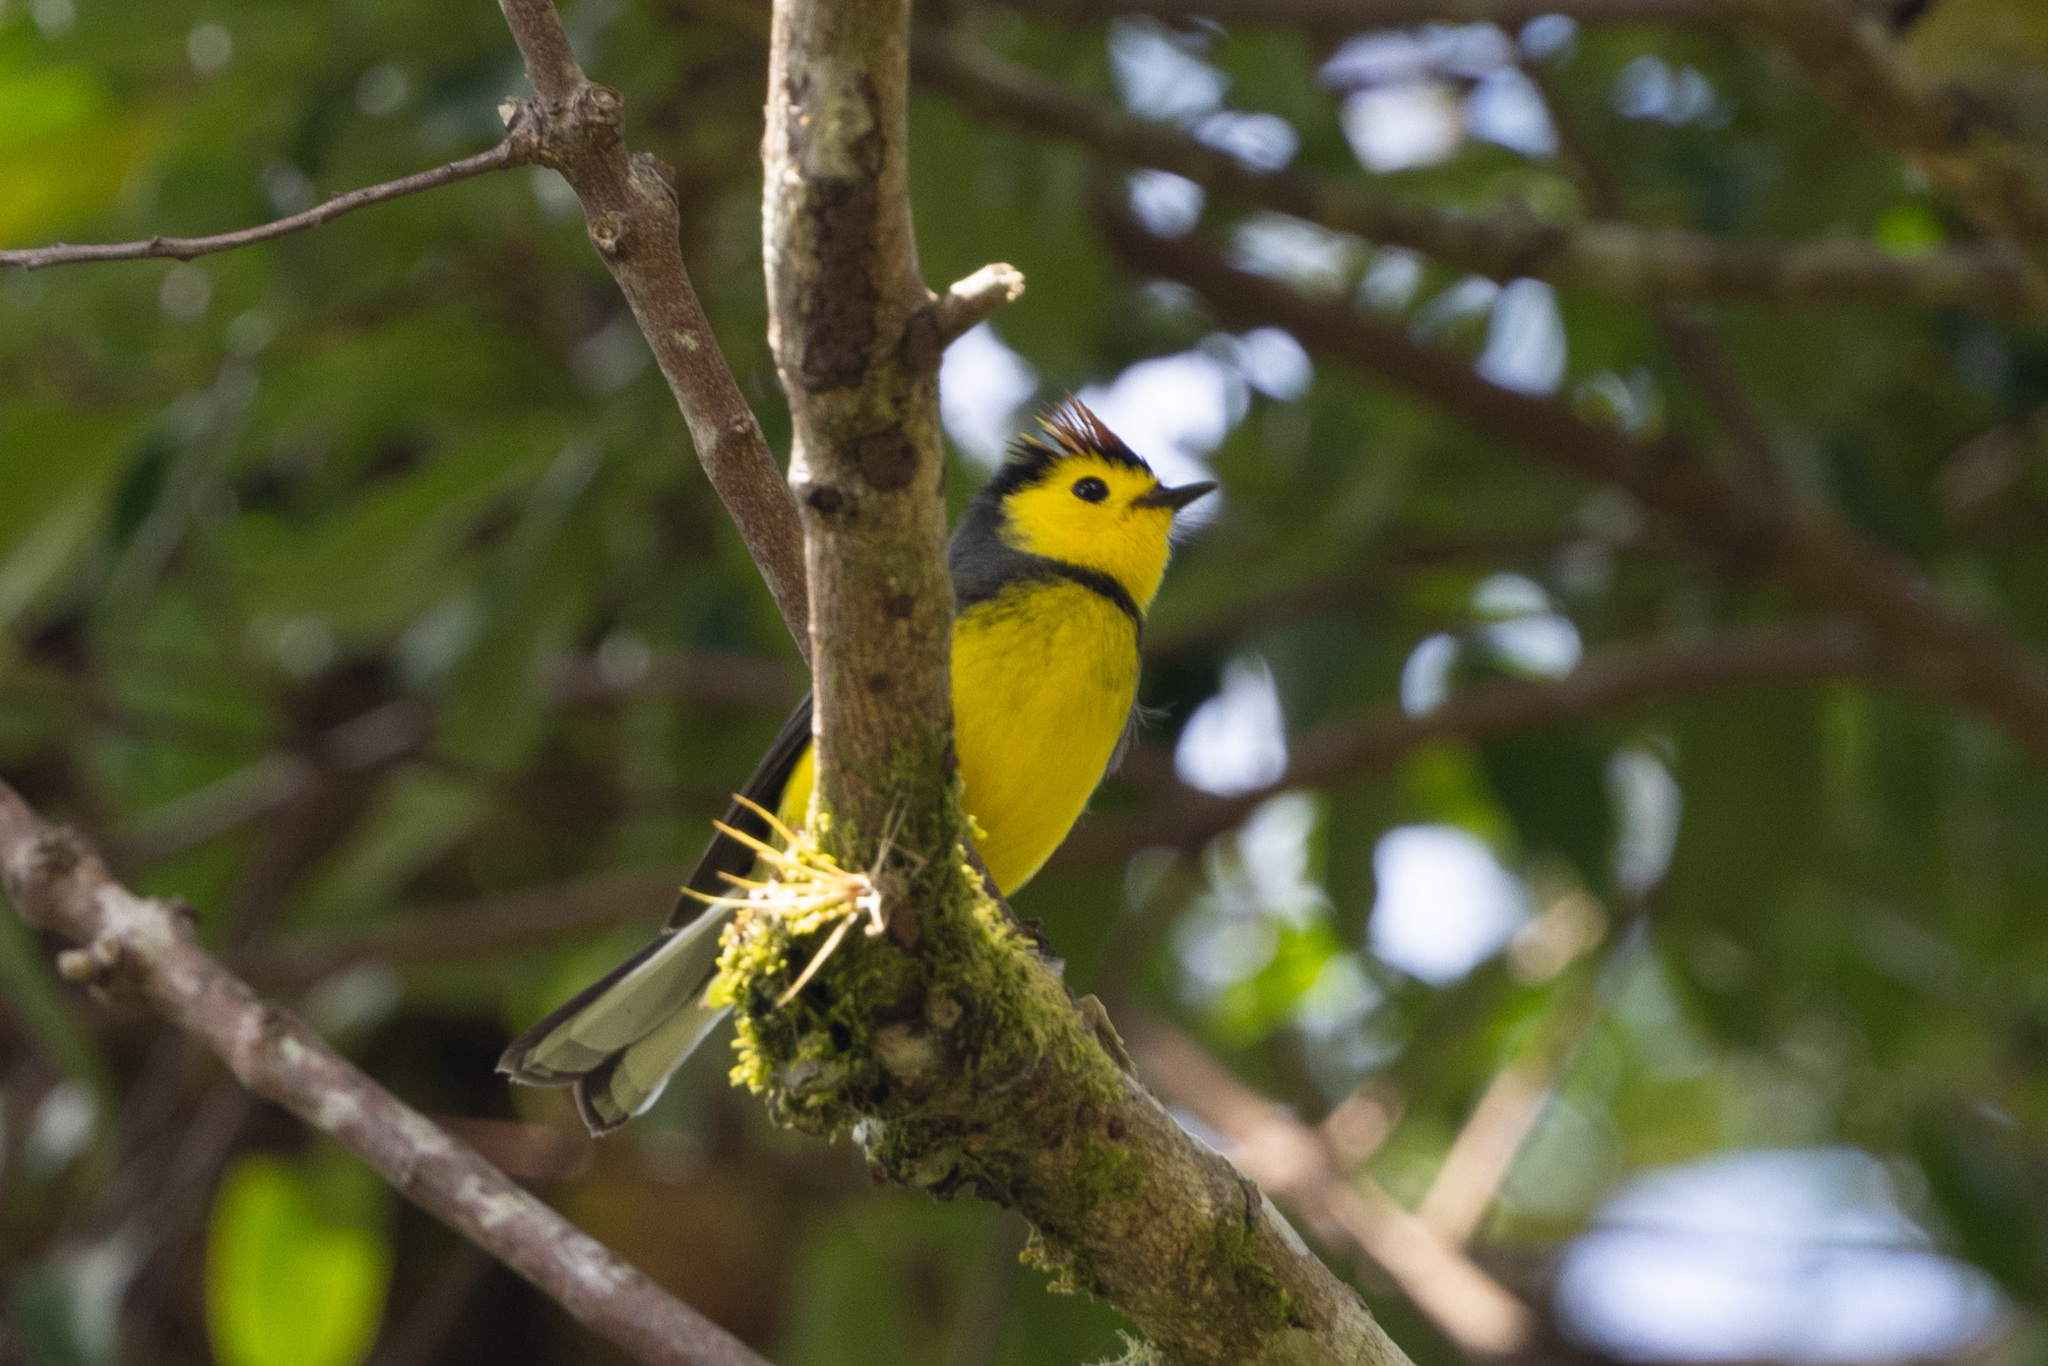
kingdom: Animalia
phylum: Chordata
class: Aves
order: Passeriformes
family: Parulidae
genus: Myioborus
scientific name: Myioborus torquatus
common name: Collared whitestart
